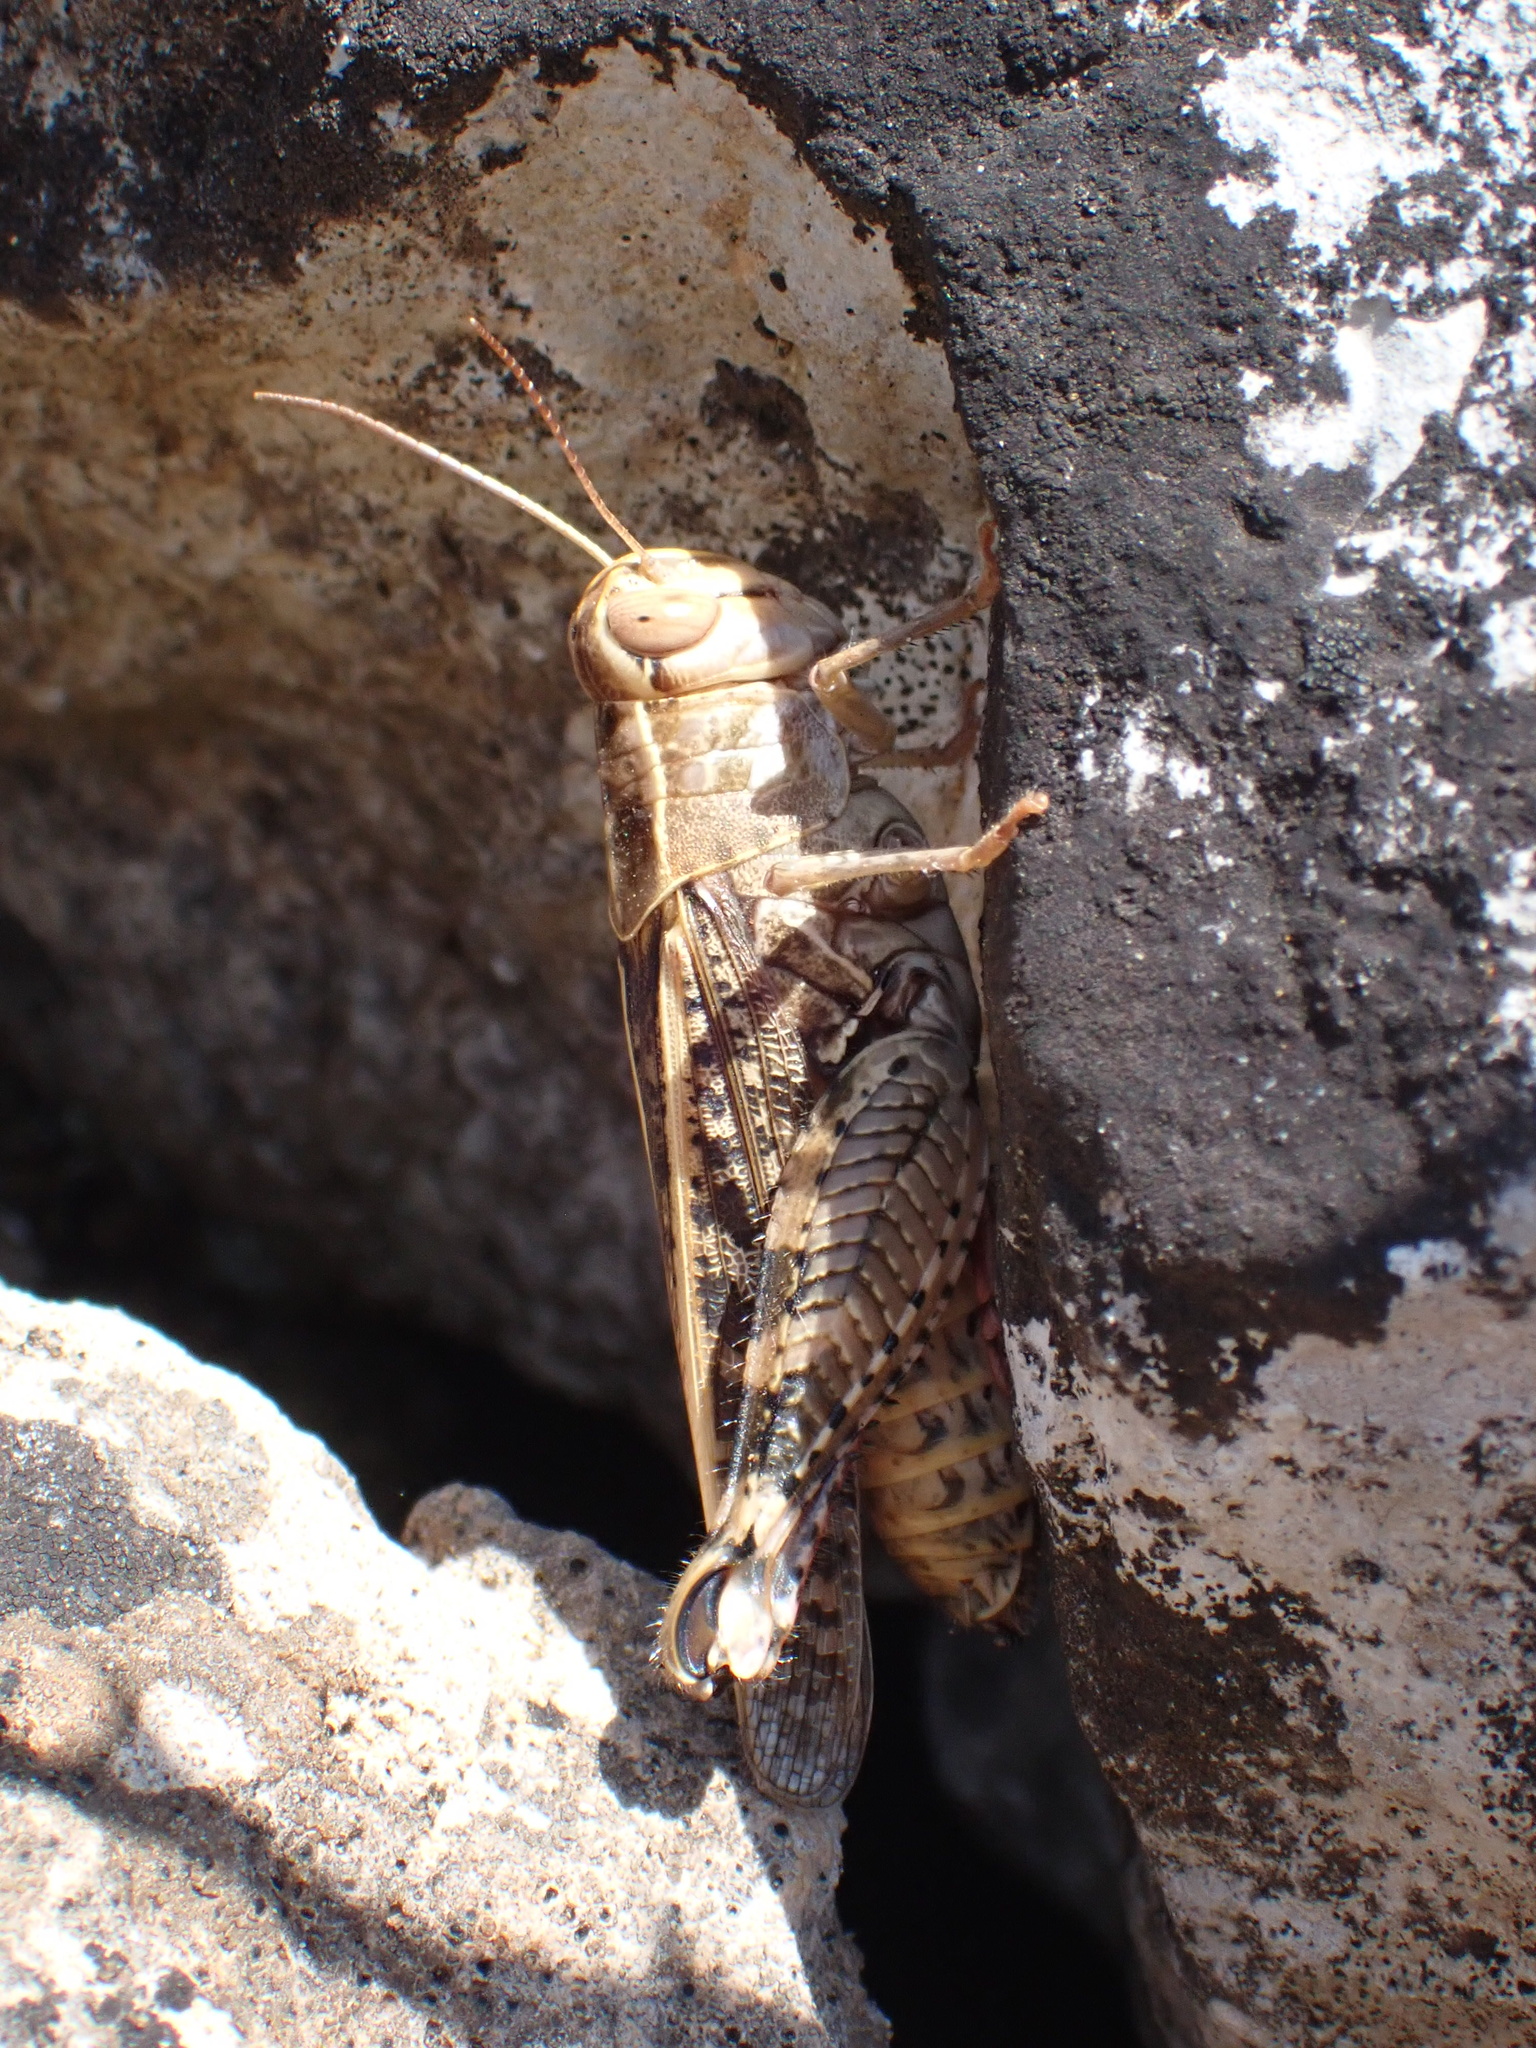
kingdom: Animalia
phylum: Arthropoda
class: Insecta
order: Orthoptera
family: Acrididae
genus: Calliptamus
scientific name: Calliptamus italicus
